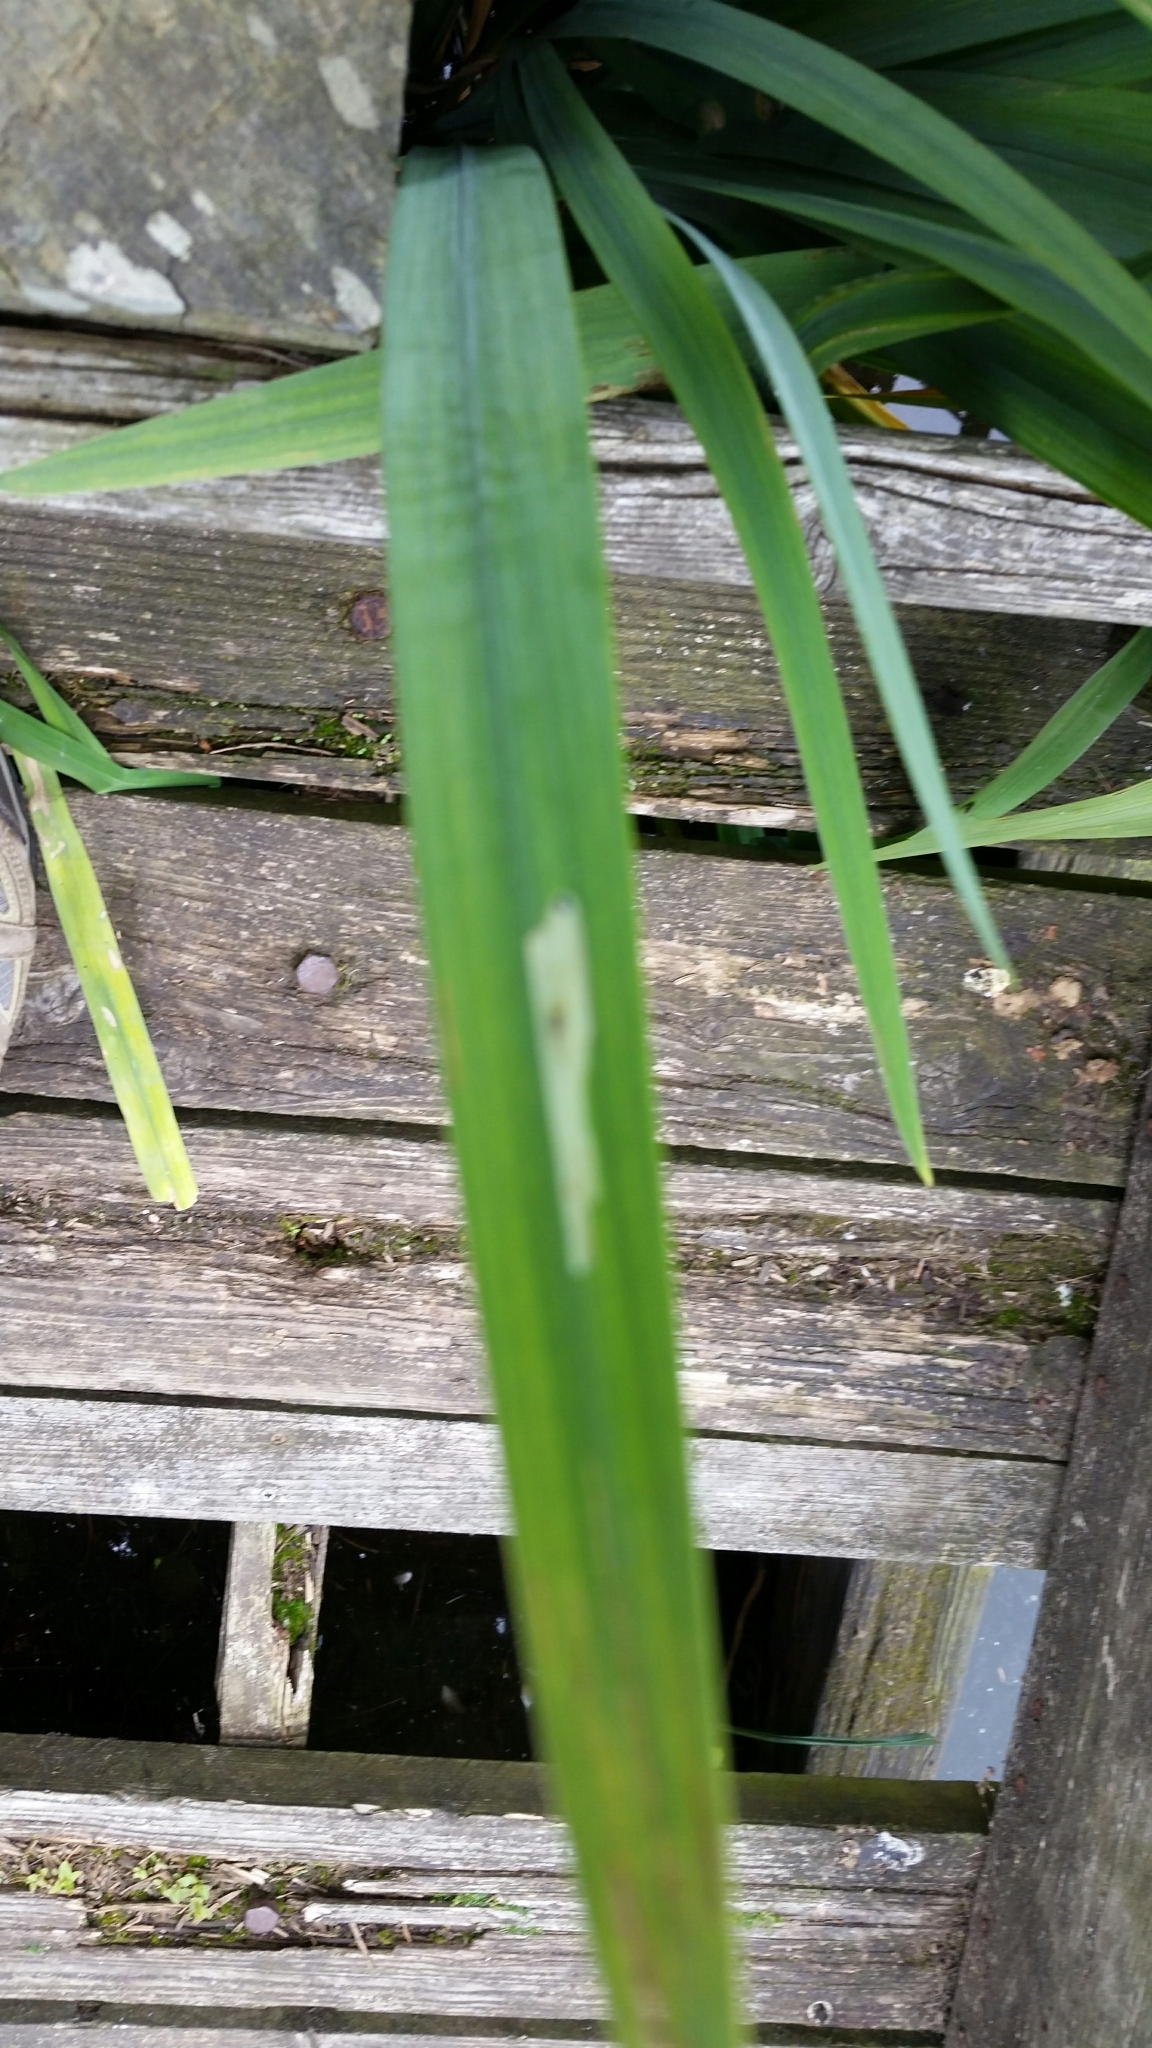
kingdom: Animalia
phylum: Arthropoda
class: Insecta
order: Diptera
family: Agromyzidae
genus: Cerodontha
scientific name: Cerodontha ircos
